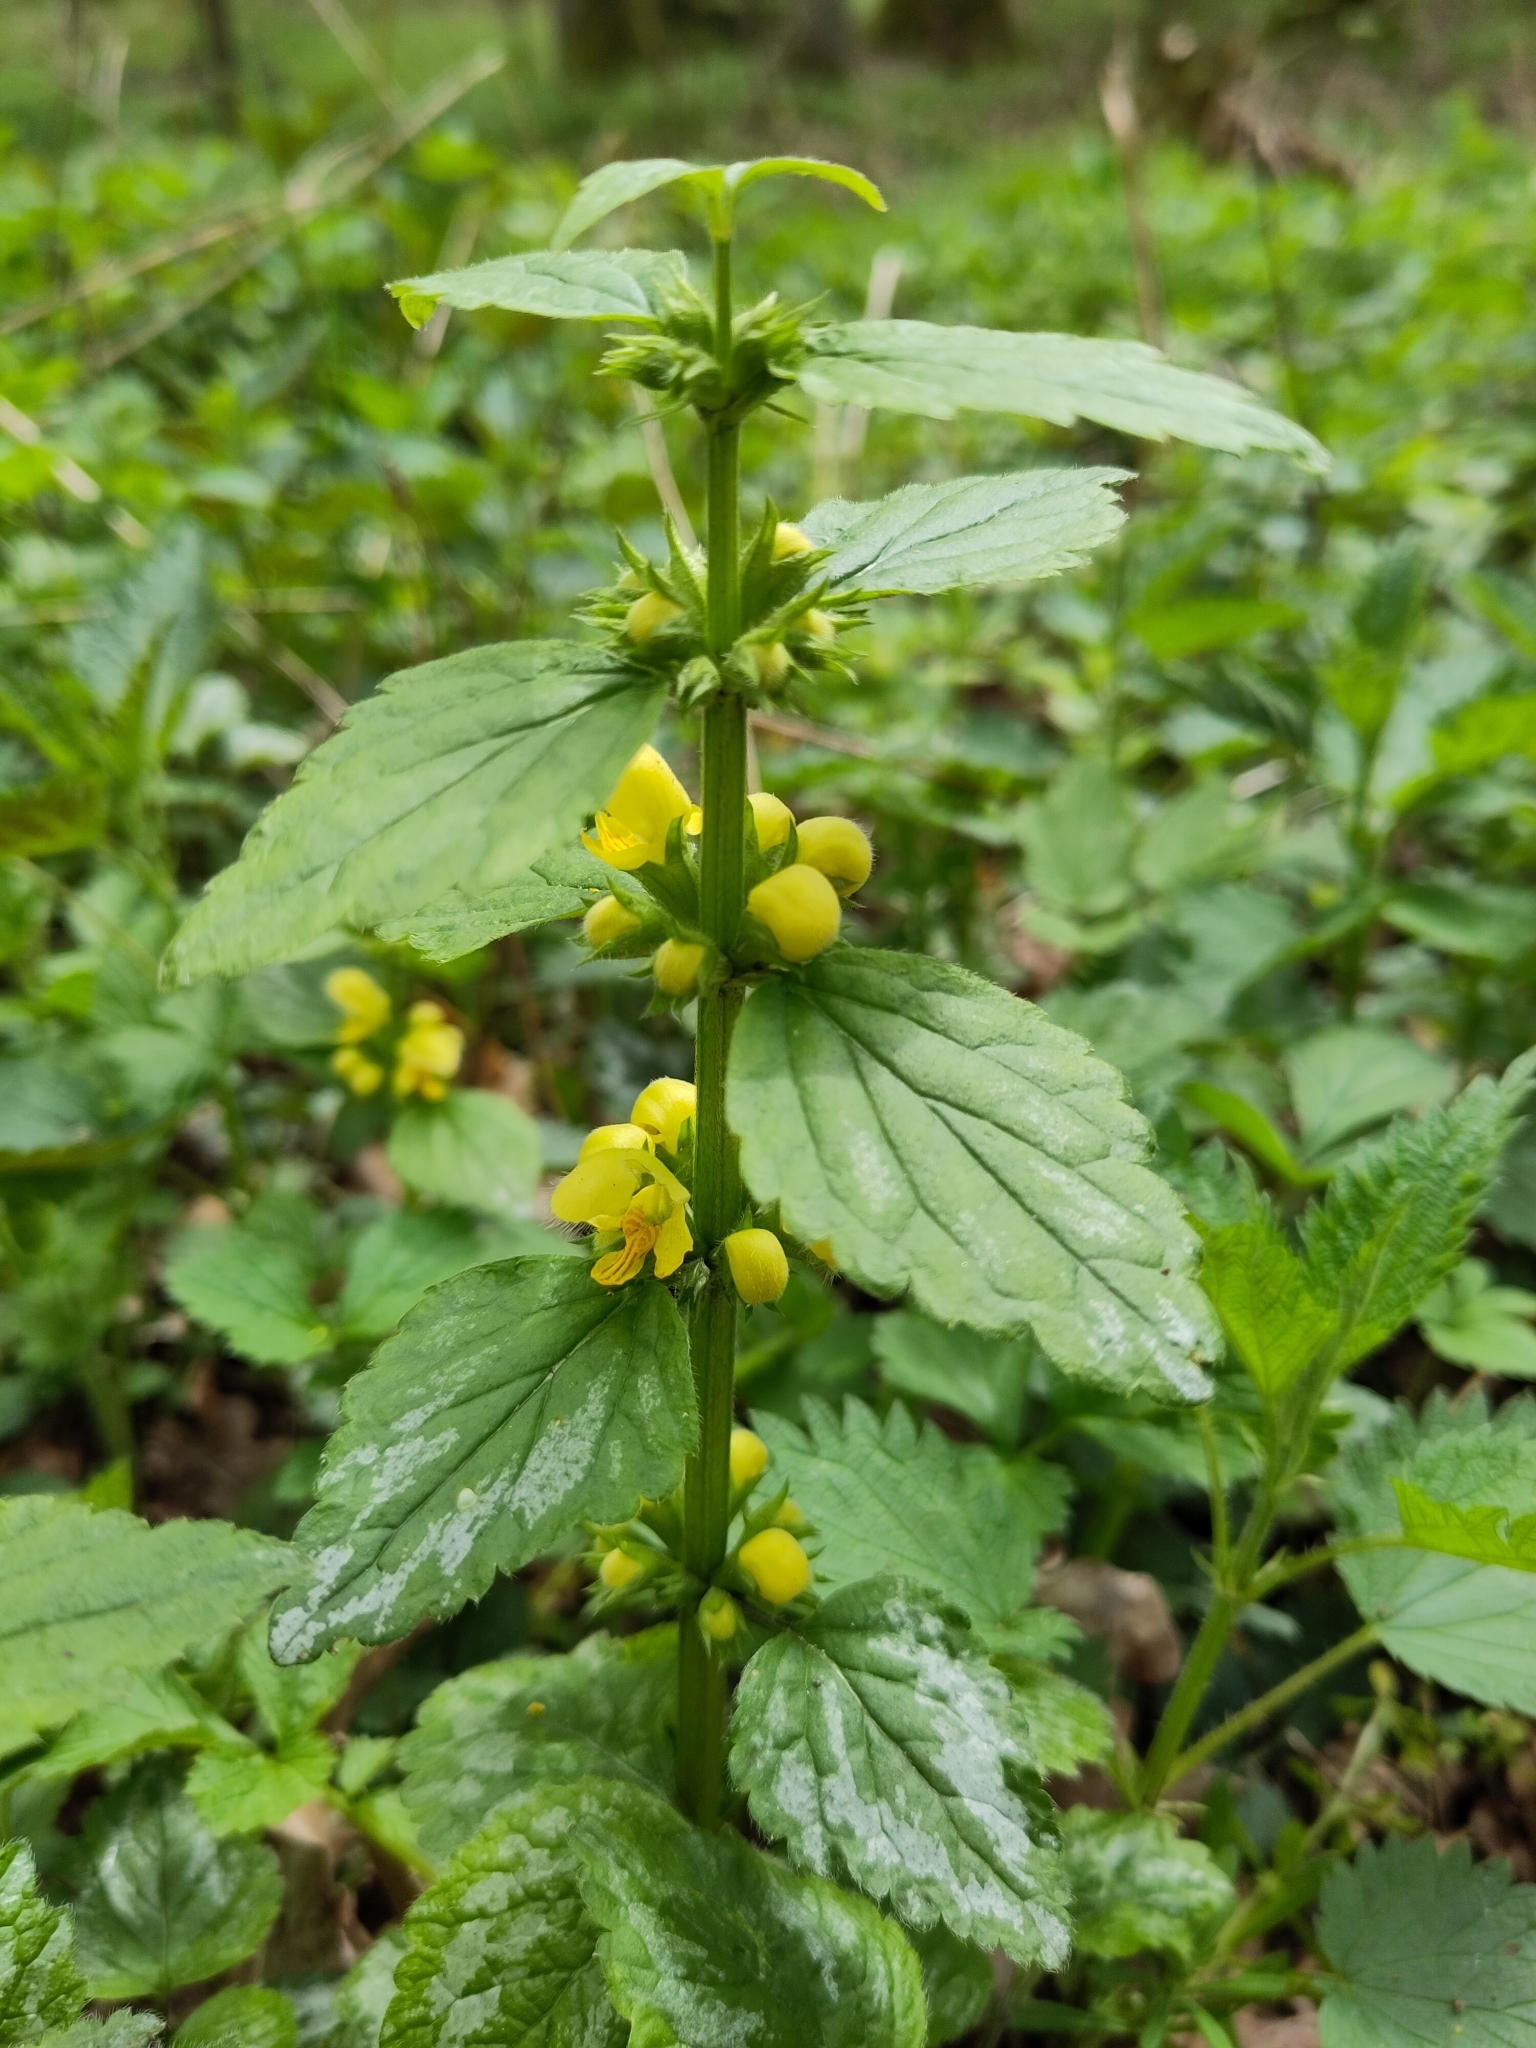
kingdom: Plantae
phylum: Tracheophyta
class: Magnoliopsida
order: Lamiales
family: Lamiaceae
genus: Lamium
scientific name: Lamium galeobdolon
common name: Yellow archangel
